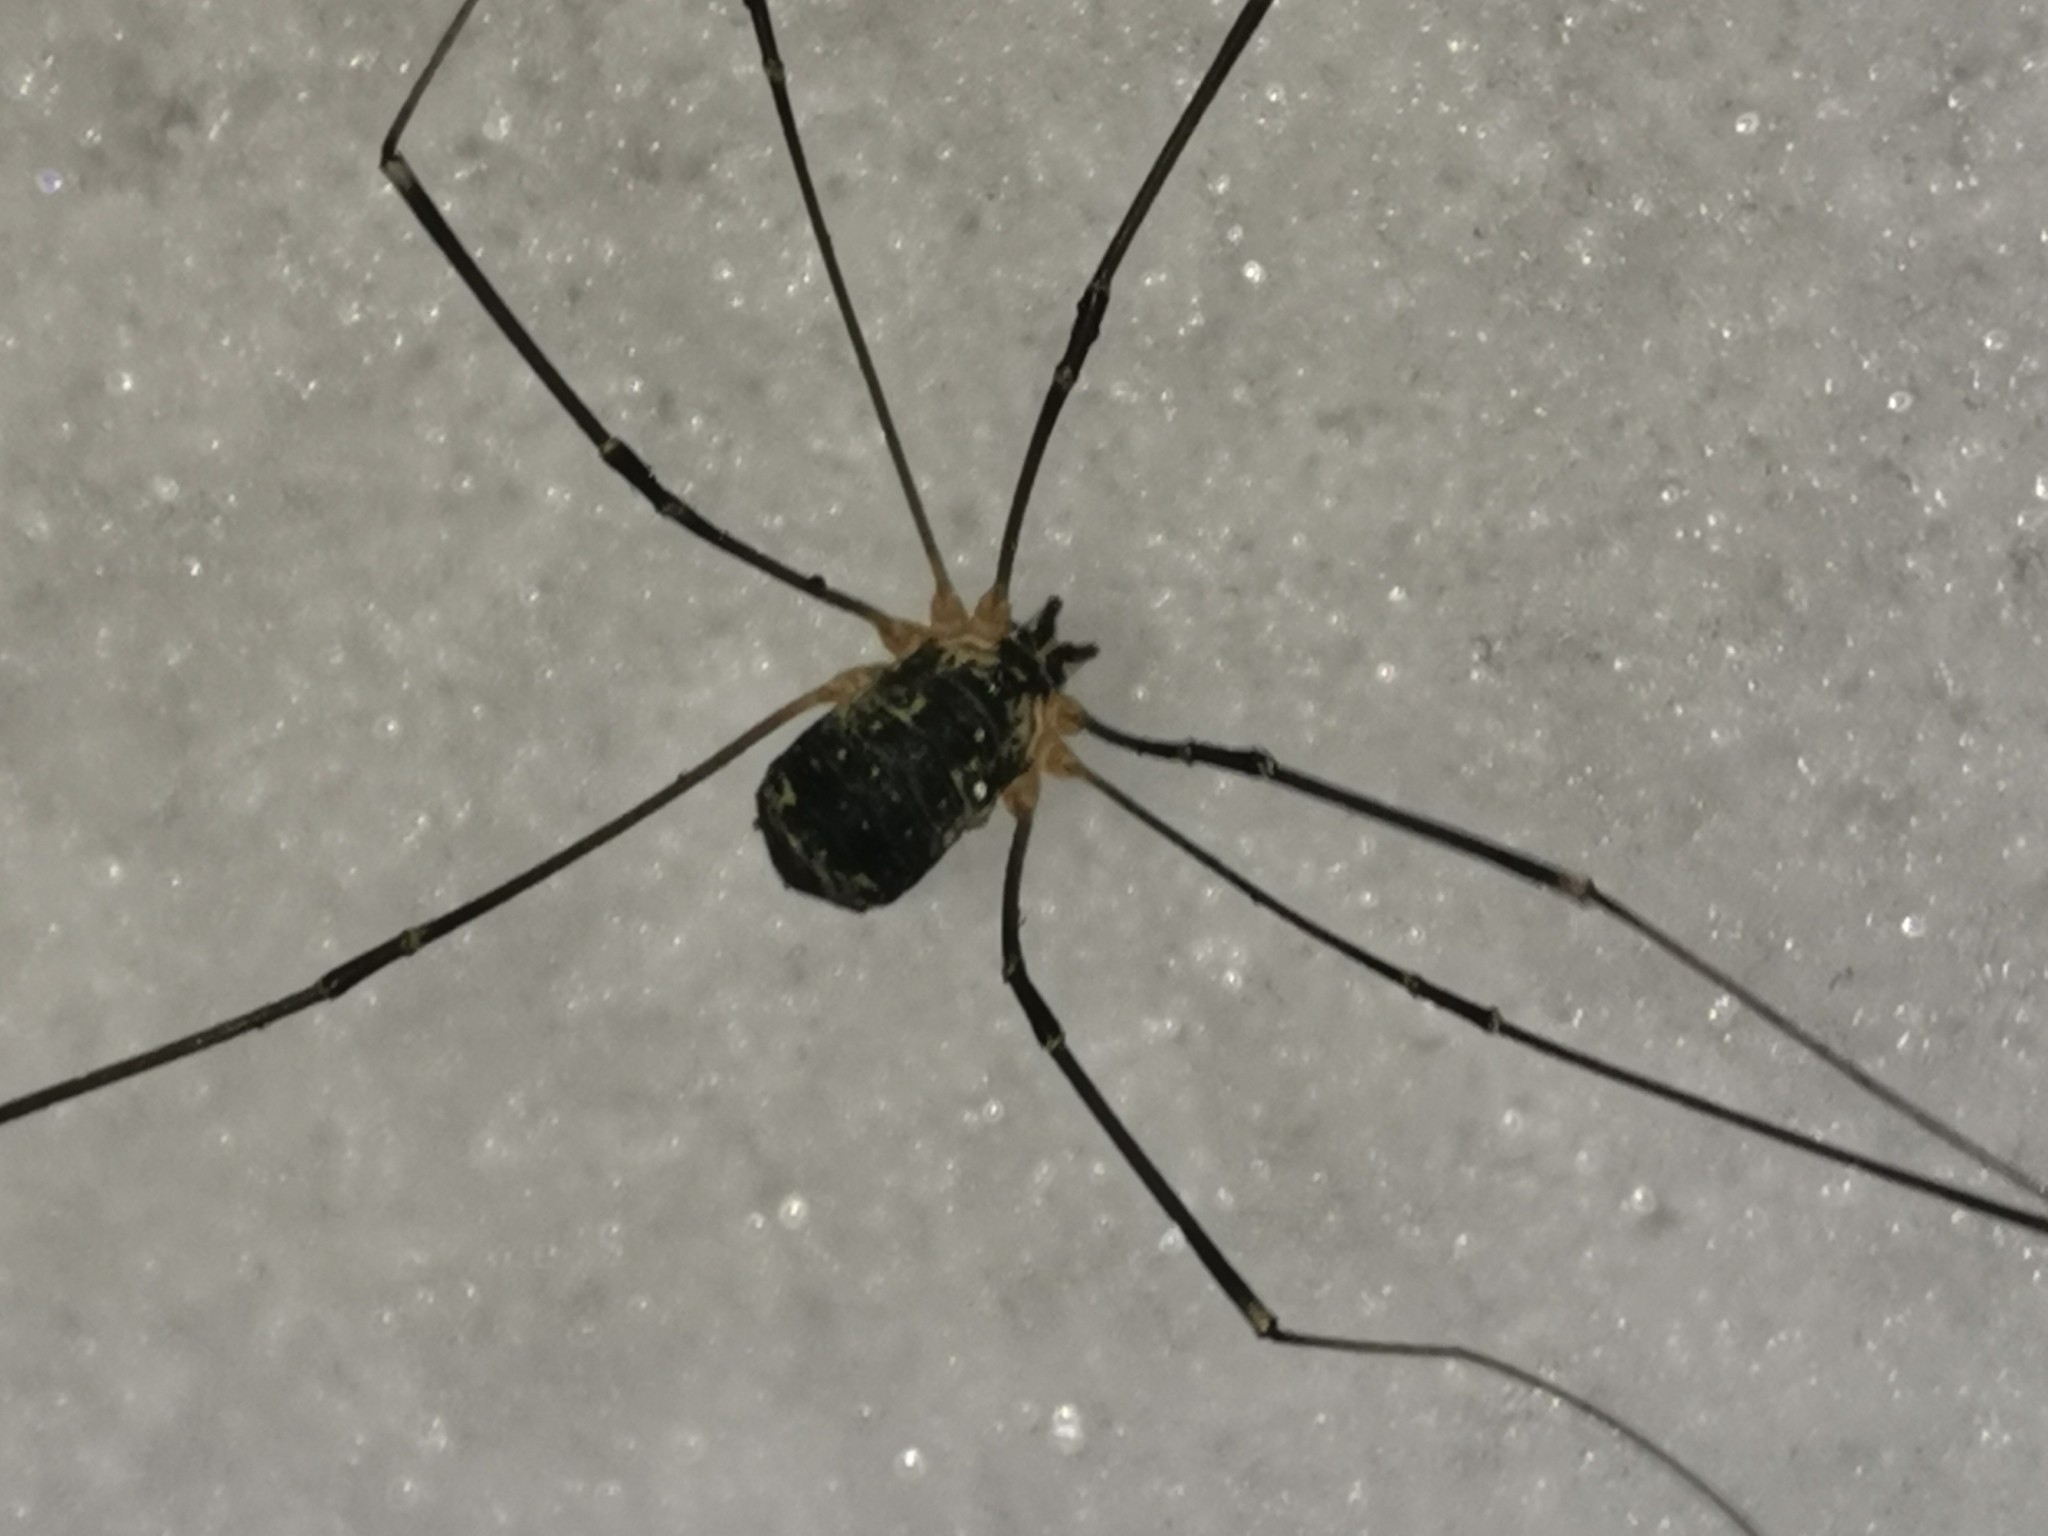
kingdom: Animalia
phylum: Arthropoda
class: Arachnida
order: Opiliones
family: Sclerosomatidae
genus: Leiobunum
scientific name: Leiobunum gracile
